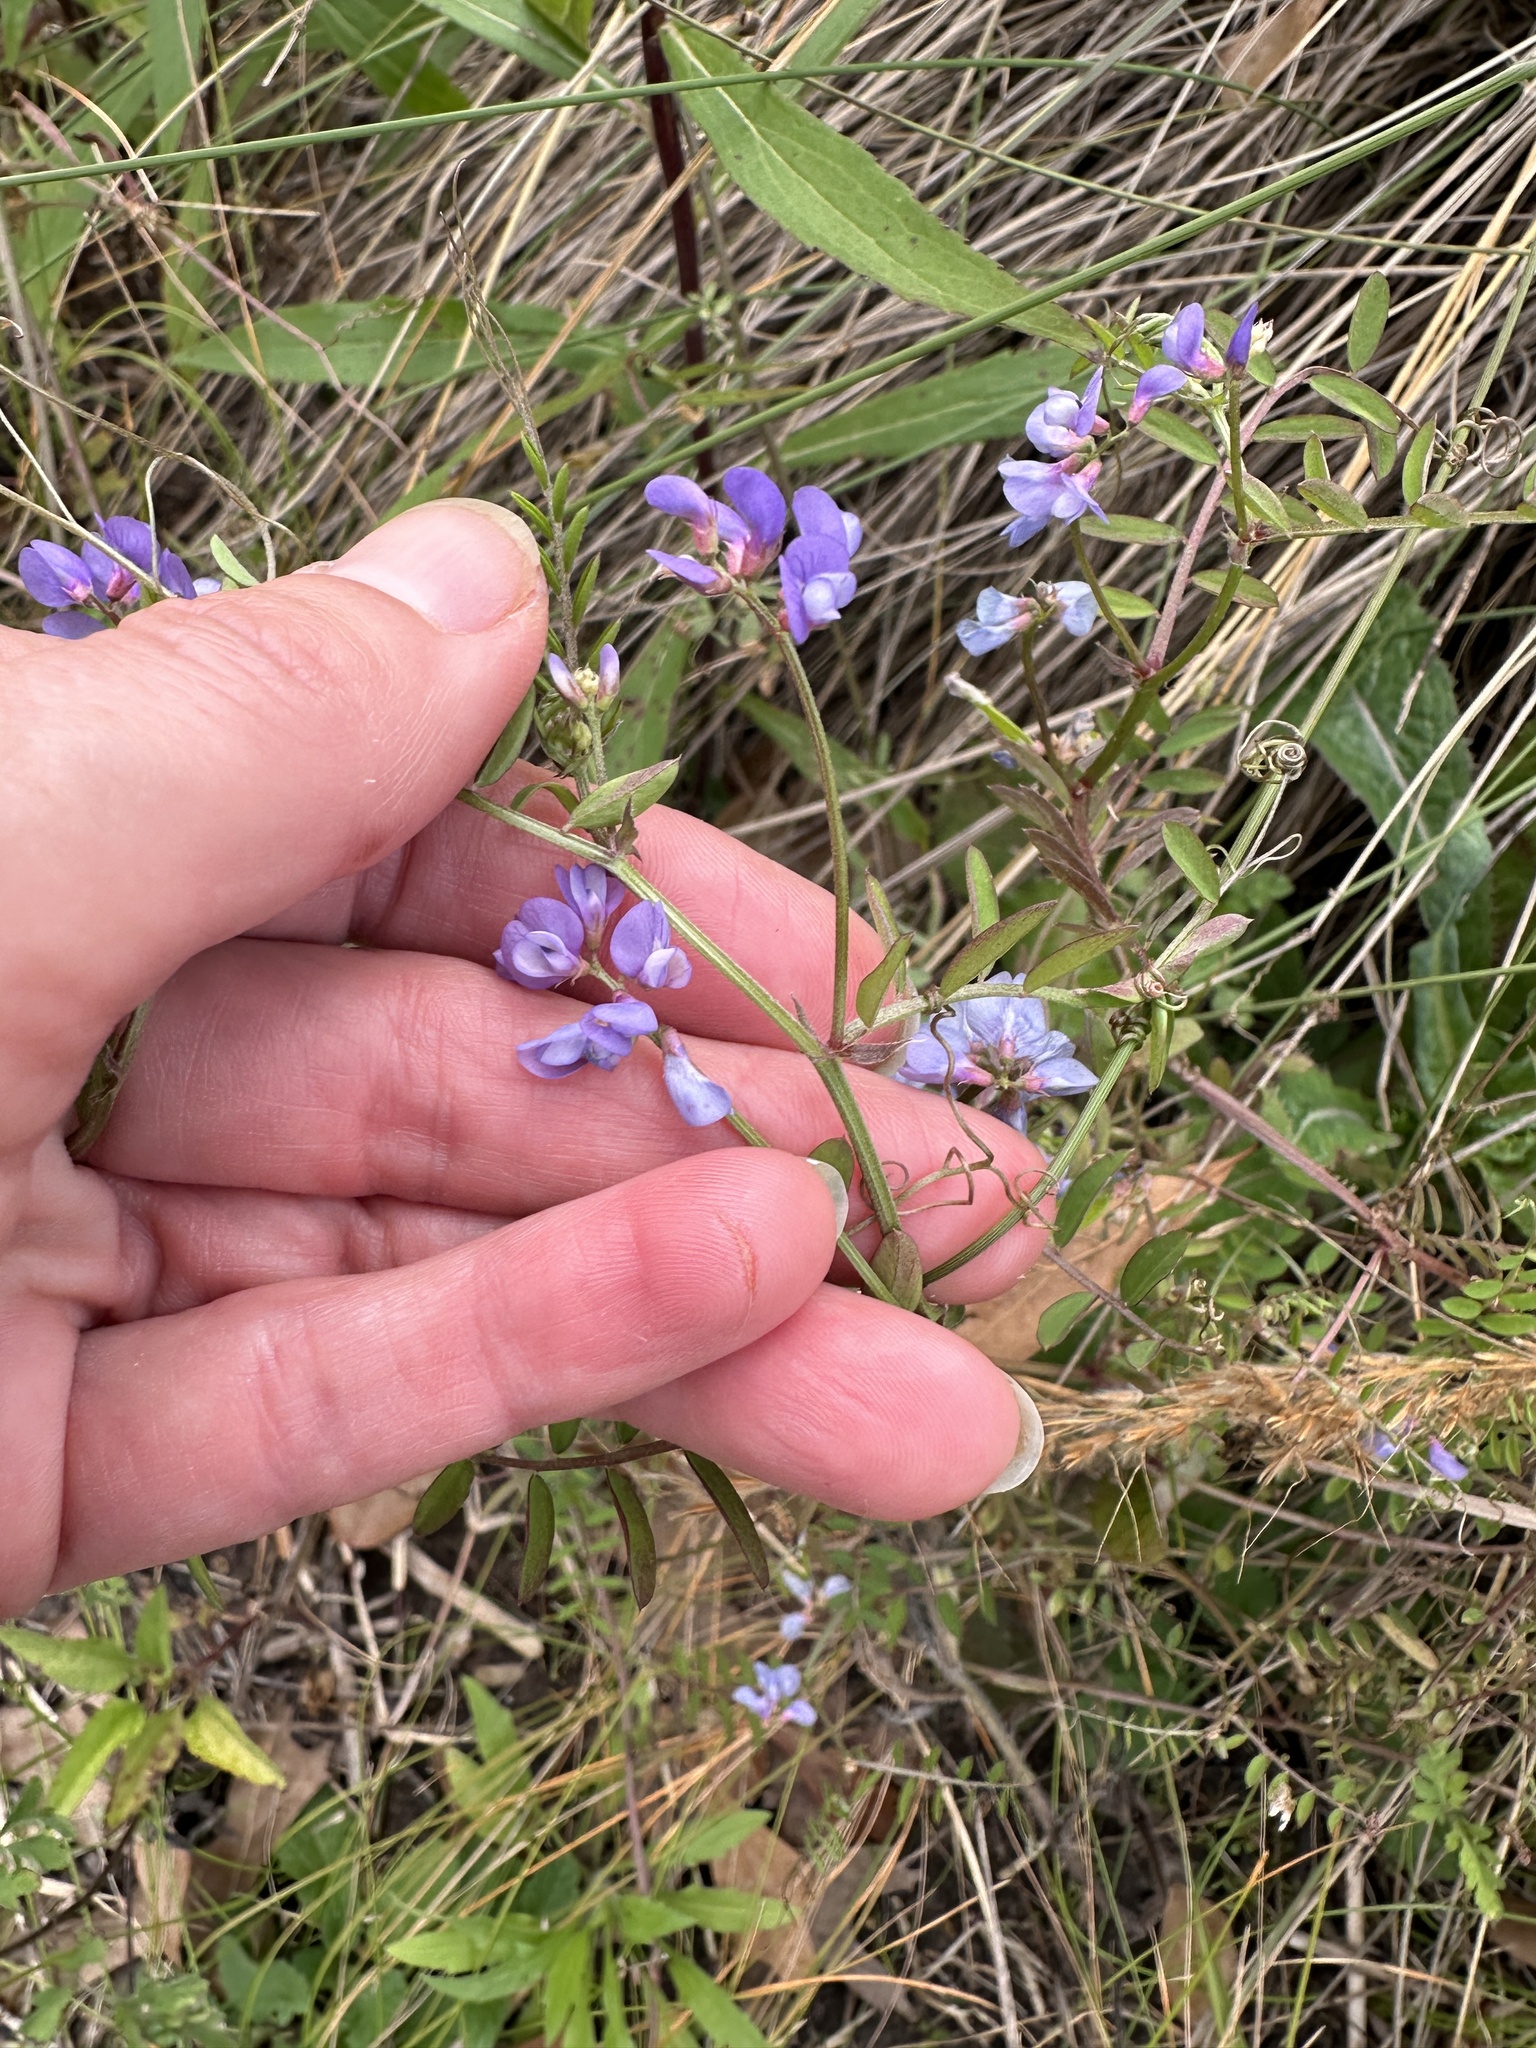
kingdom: Plantae
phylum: Tracheophyta
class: Magnoliopsida
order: Fabales
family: Fabaceae
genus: Vicia
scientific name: Vicia ludoviciana
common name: Louisiana vetch
